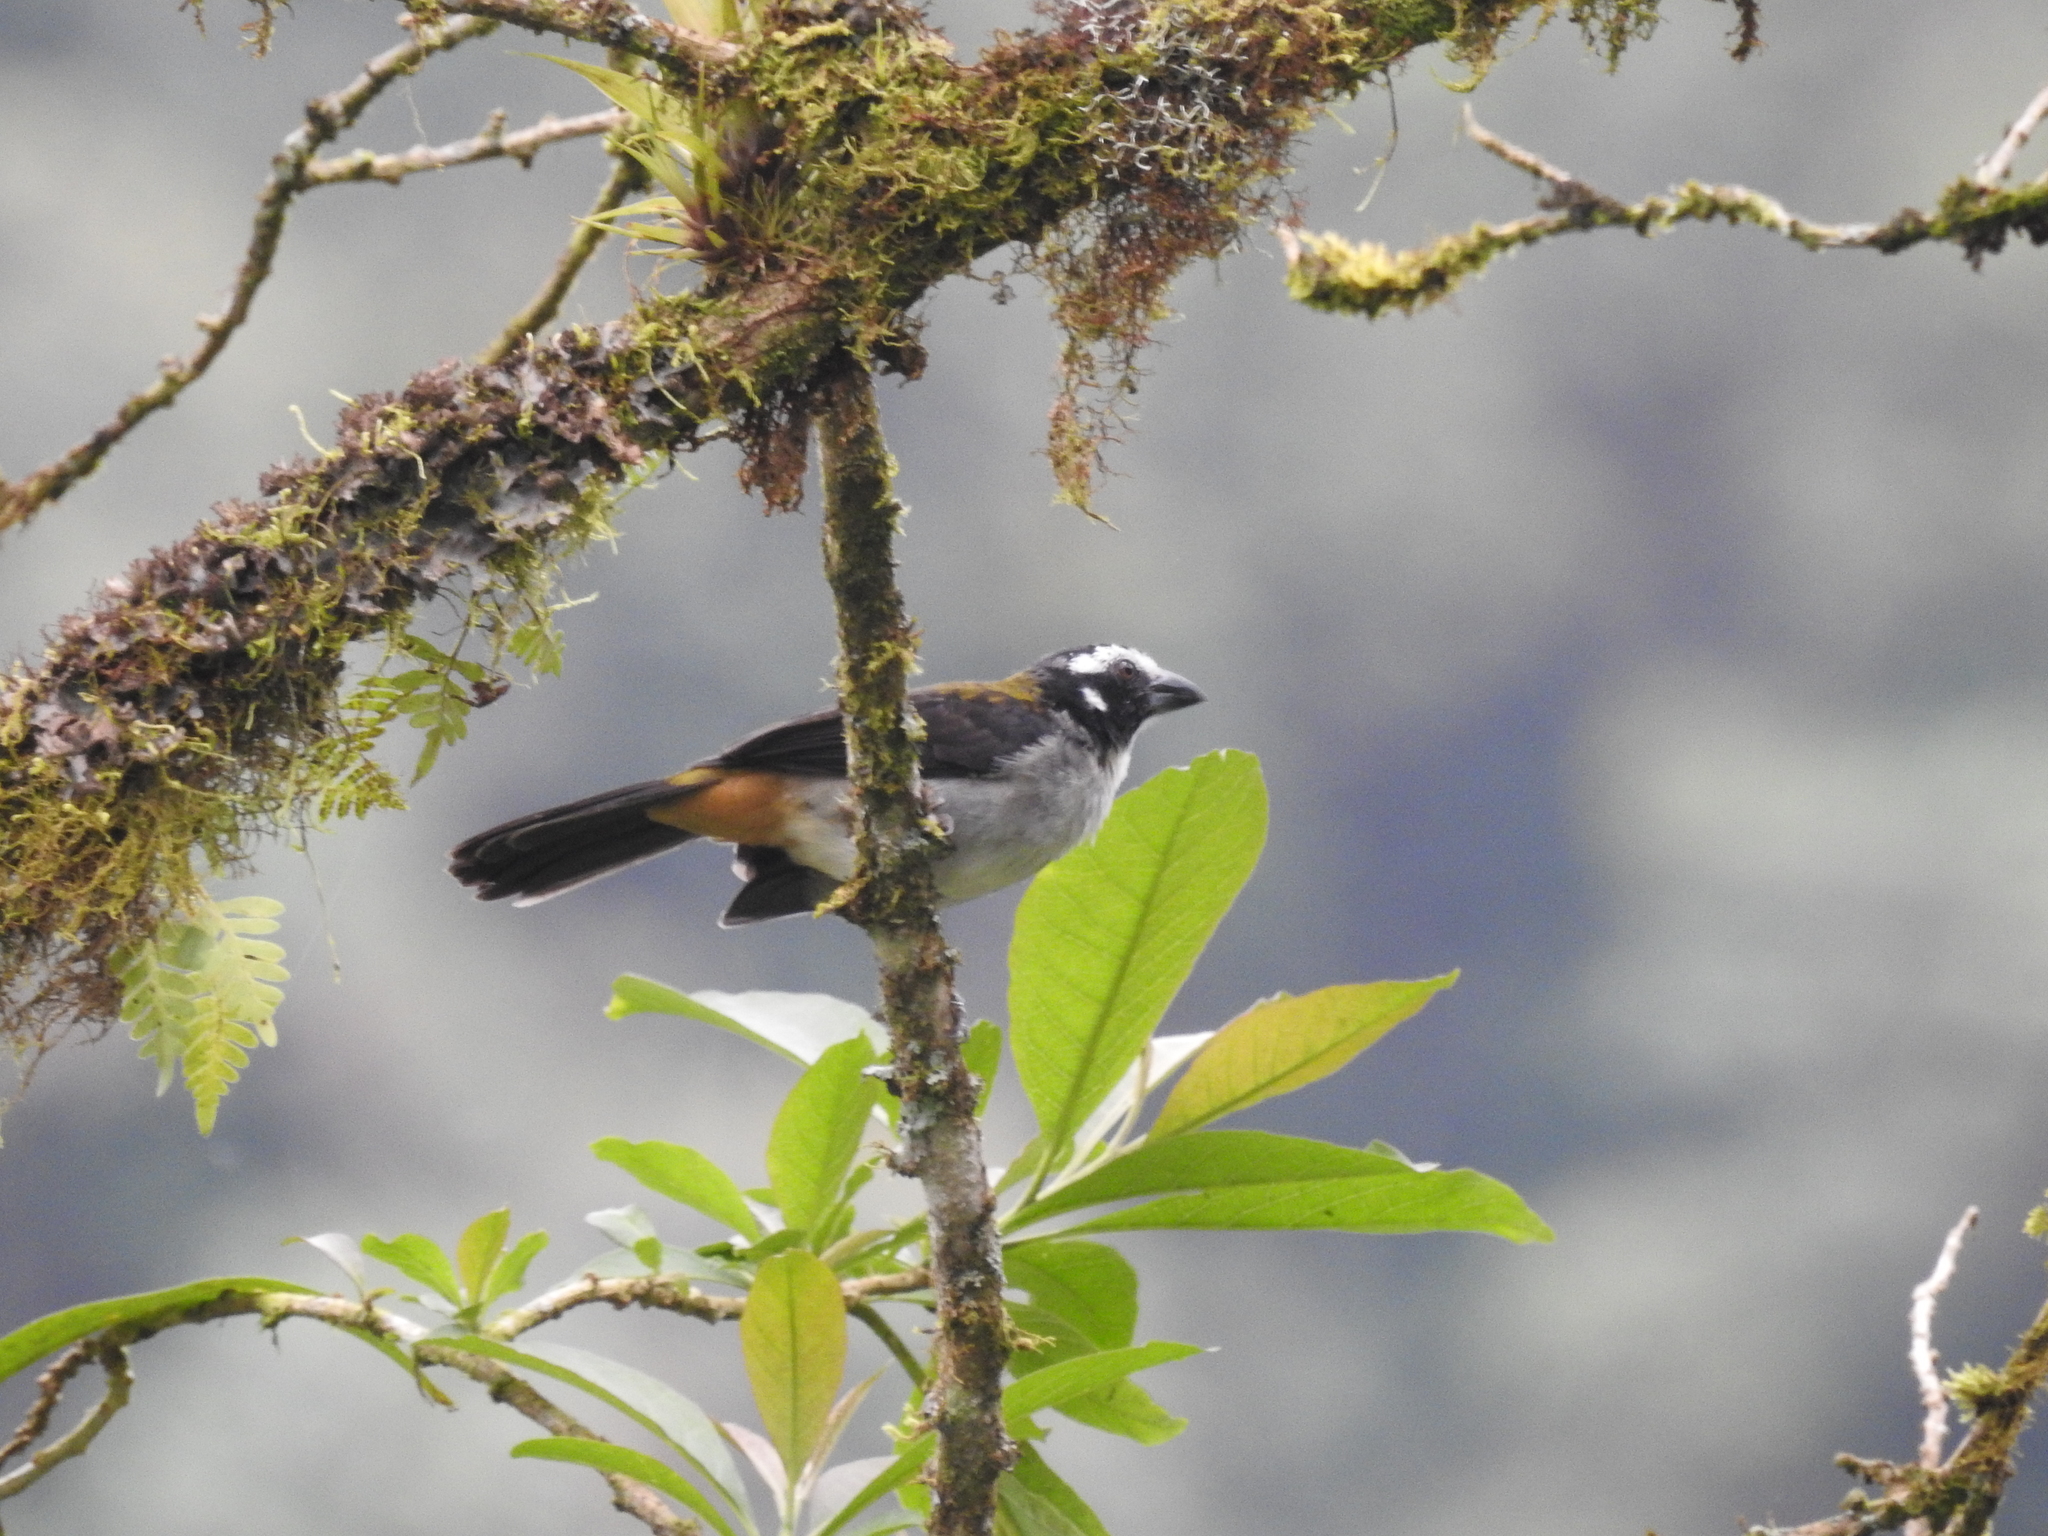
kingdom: Animalia
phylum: Chordata
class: Aves
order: Passeriformes
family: Thraupidae
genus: Saltator
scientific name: Saltator atripennis
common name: Black-winged saltator
